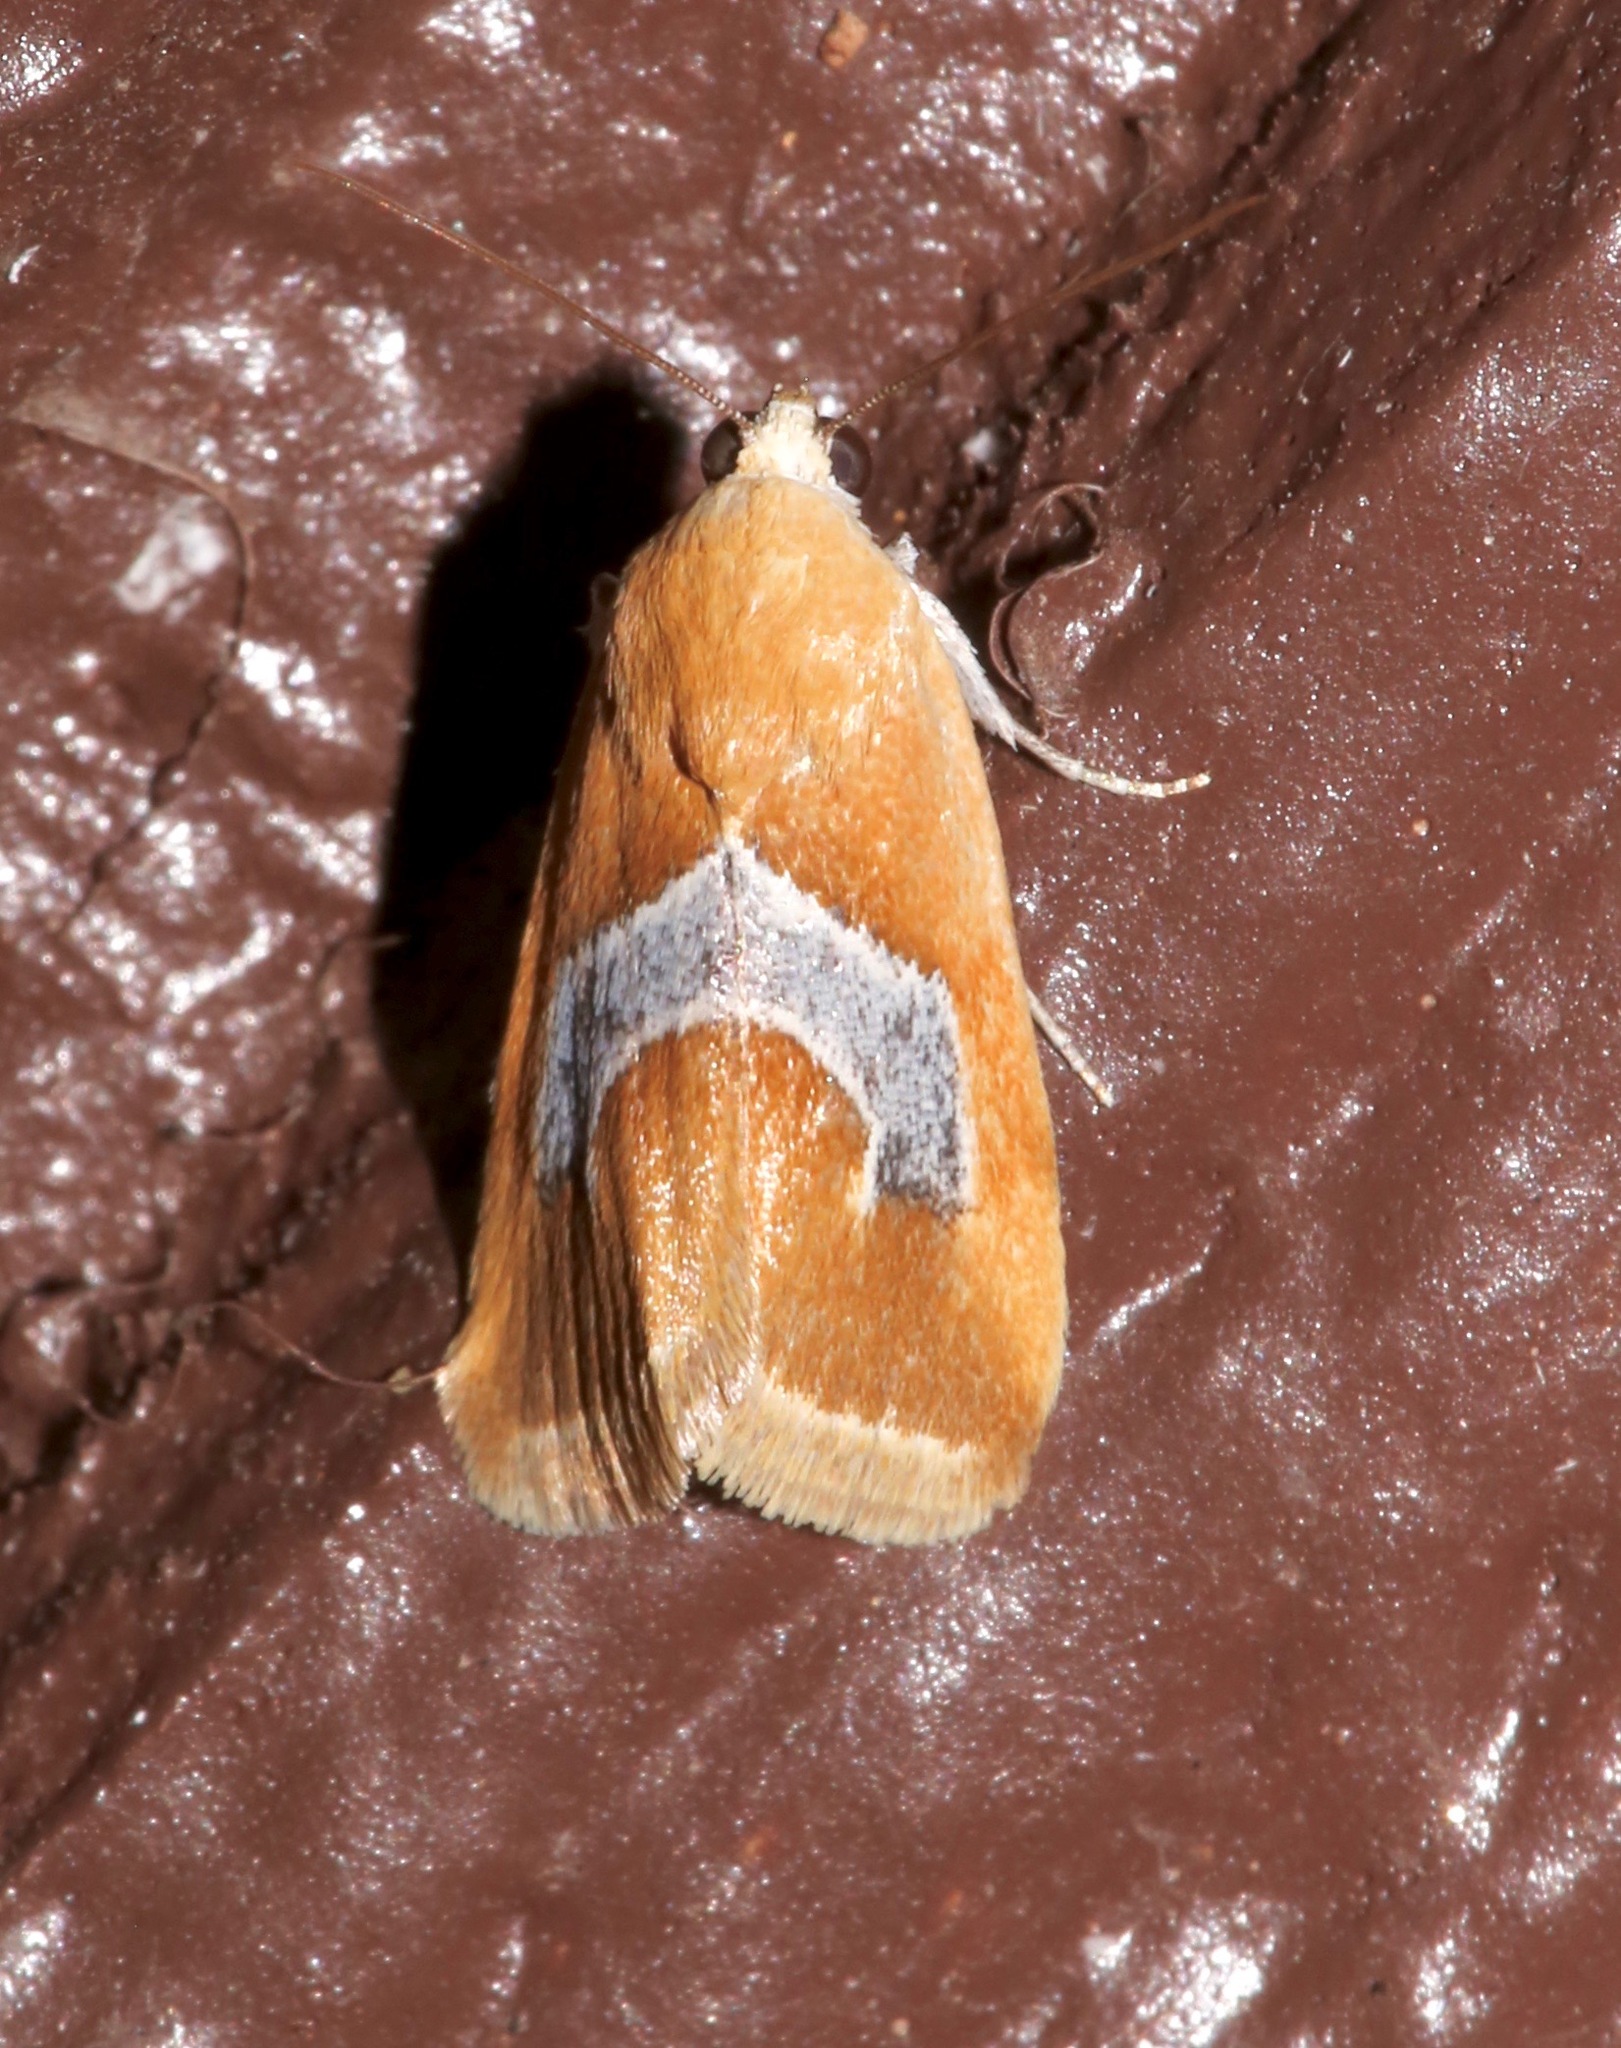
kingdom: Animalia
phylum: Arthropoda
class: Insecta
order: Lepidoptera
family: Noctuidae
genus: Ponometia
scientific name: Ponometia venustula
